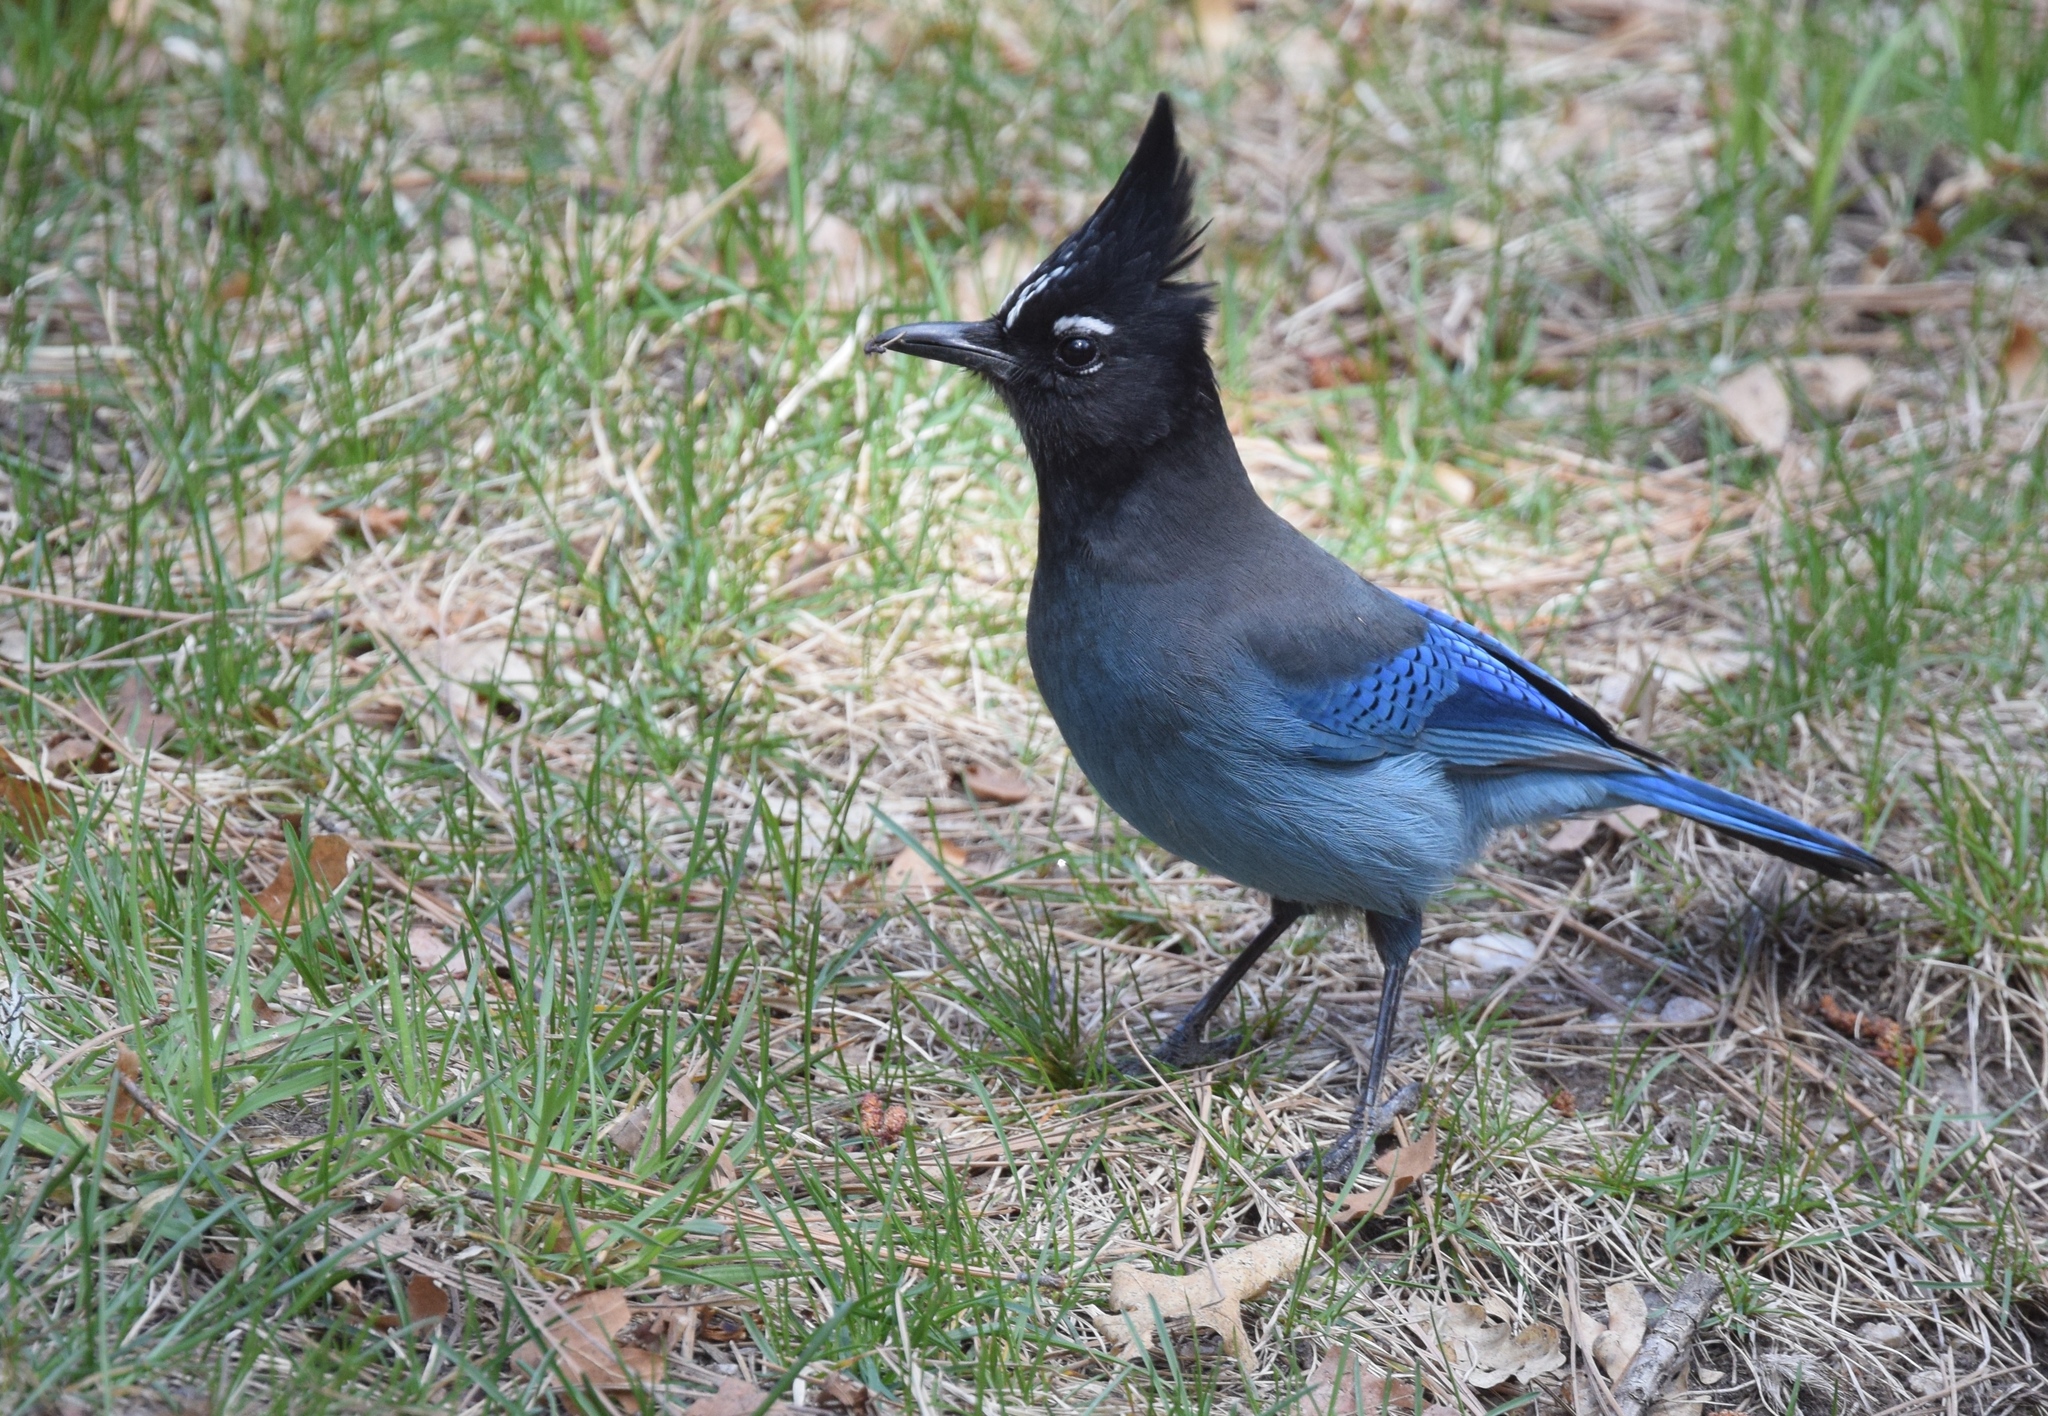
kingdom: Animalia
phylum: Chordata
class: Aves
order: Passeriformes
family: Corvidae
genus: Cyanocitta
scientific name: Cyanocitta stelleri
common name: Steller's jay
